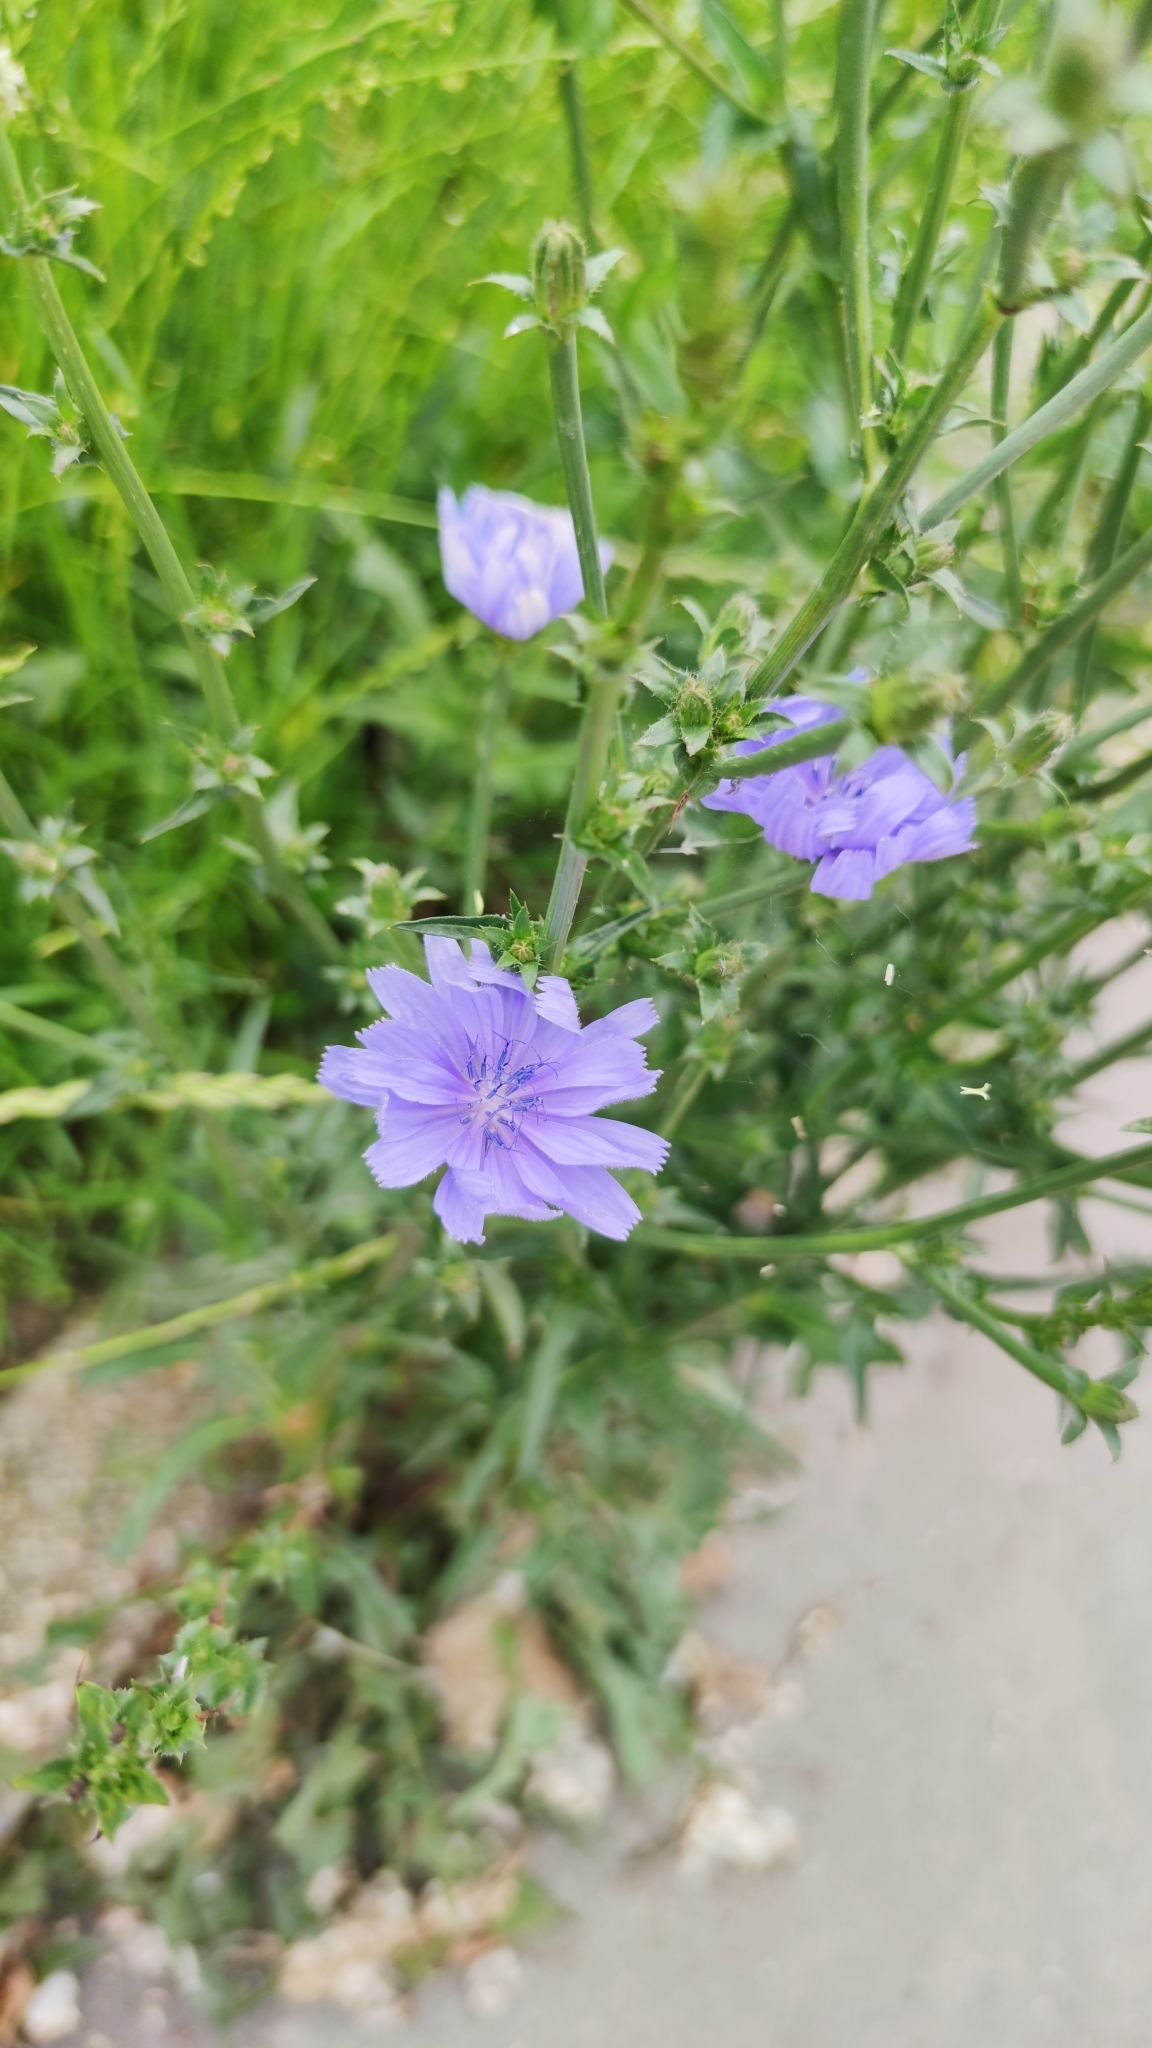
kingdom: Plantae
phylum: Tracheophyta
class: Magnoliopsida
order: Asterales
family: Asteraceae
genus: Cichorium
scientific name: Cichorium intybus
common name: Chicory
